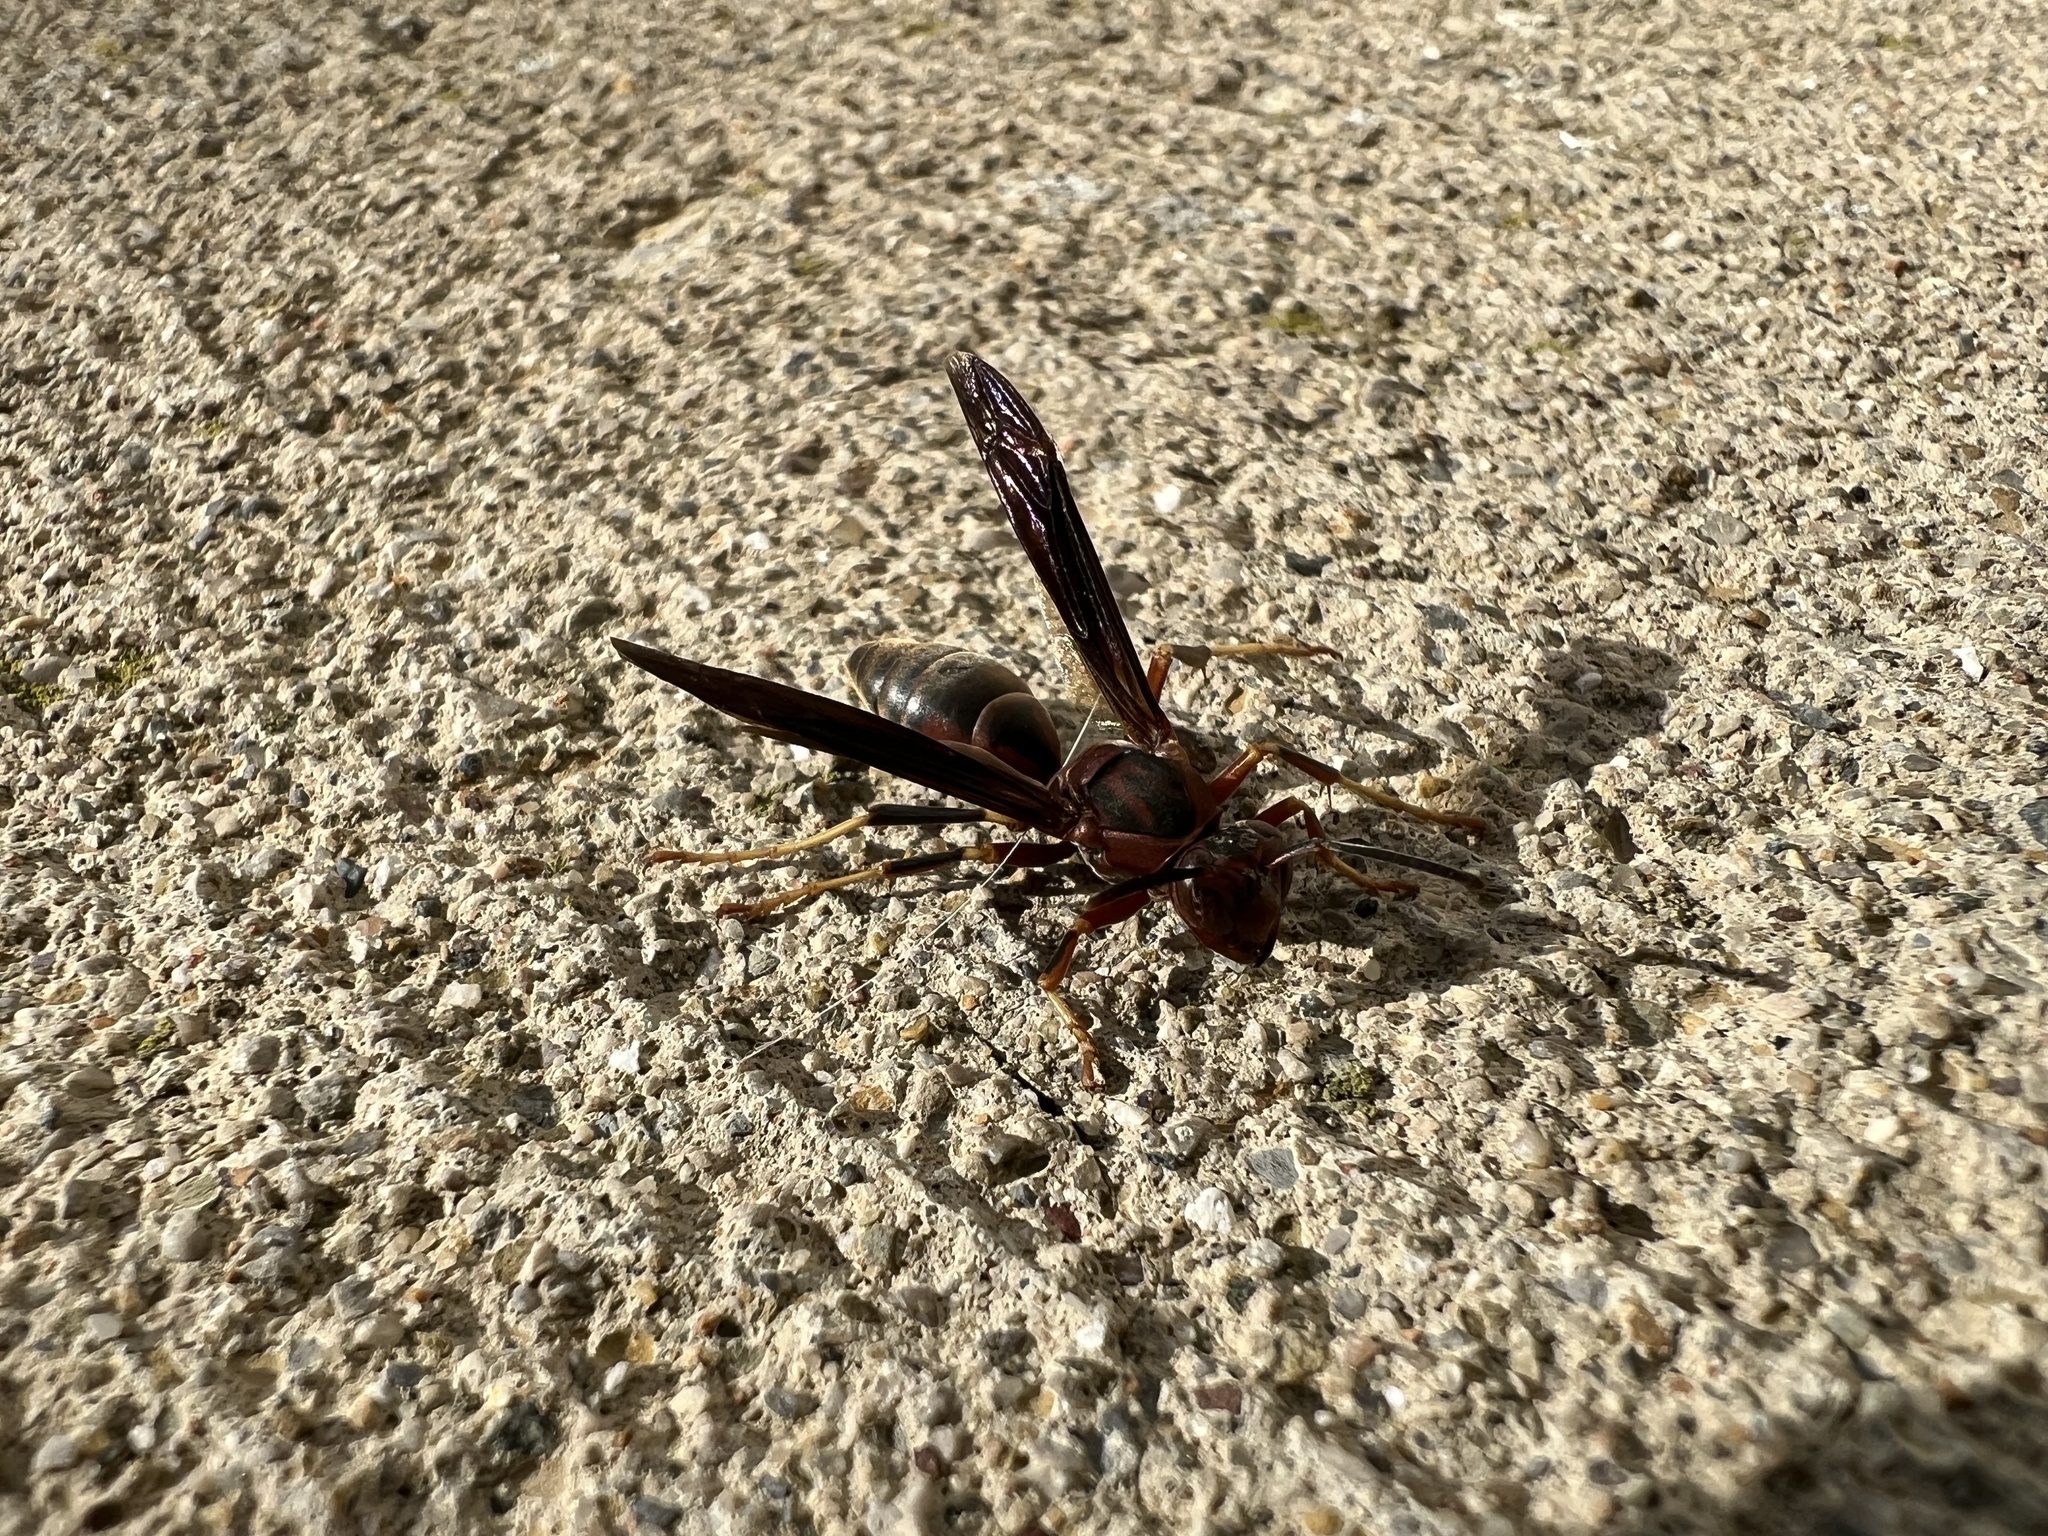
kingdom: Animalia
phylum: Arthropoda
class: Insecta
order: Hymenoptera
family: Eumenidae
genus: Polistes
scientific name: Polistes metricus
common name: Metric paper wasp
